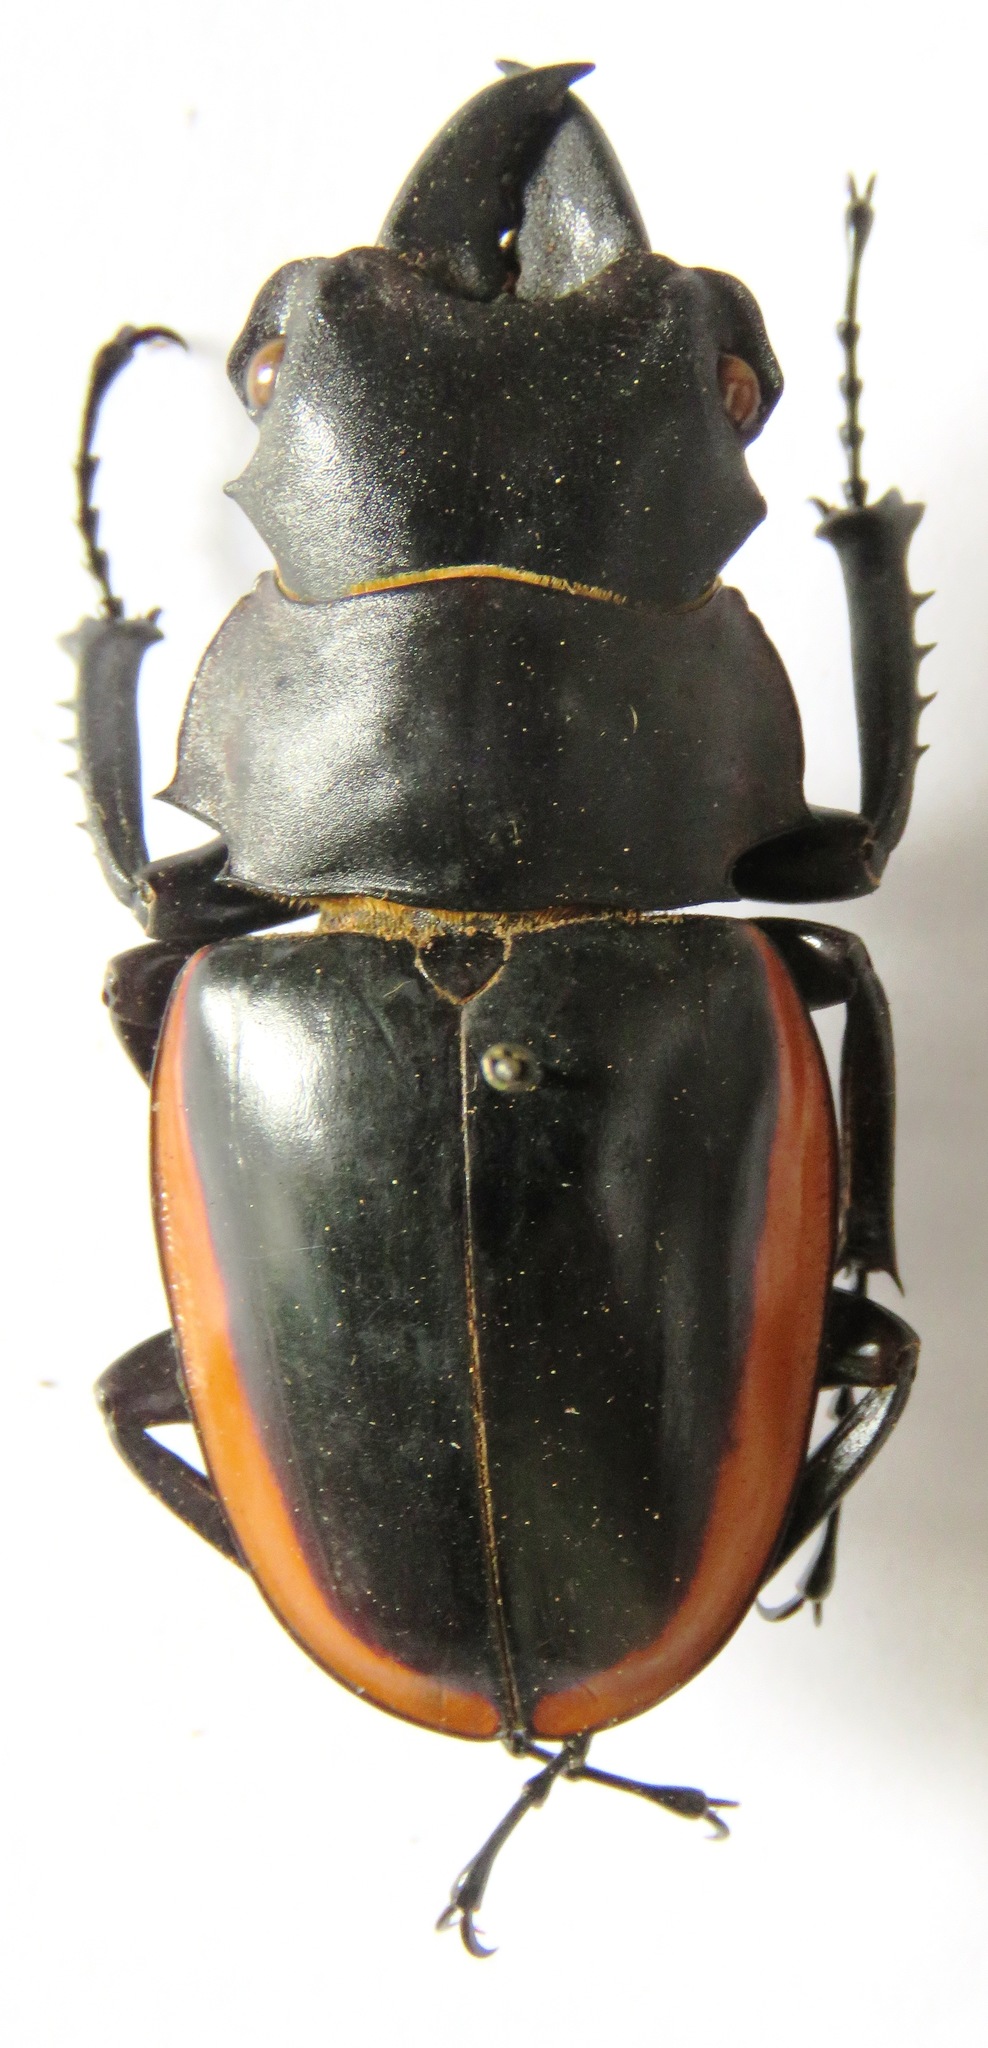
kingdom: Animalia
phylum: Arthropoda
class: Insecta
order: Coleoptera
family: Lucanidae
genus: Odontolabis
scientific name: Odontolabis cuvera
